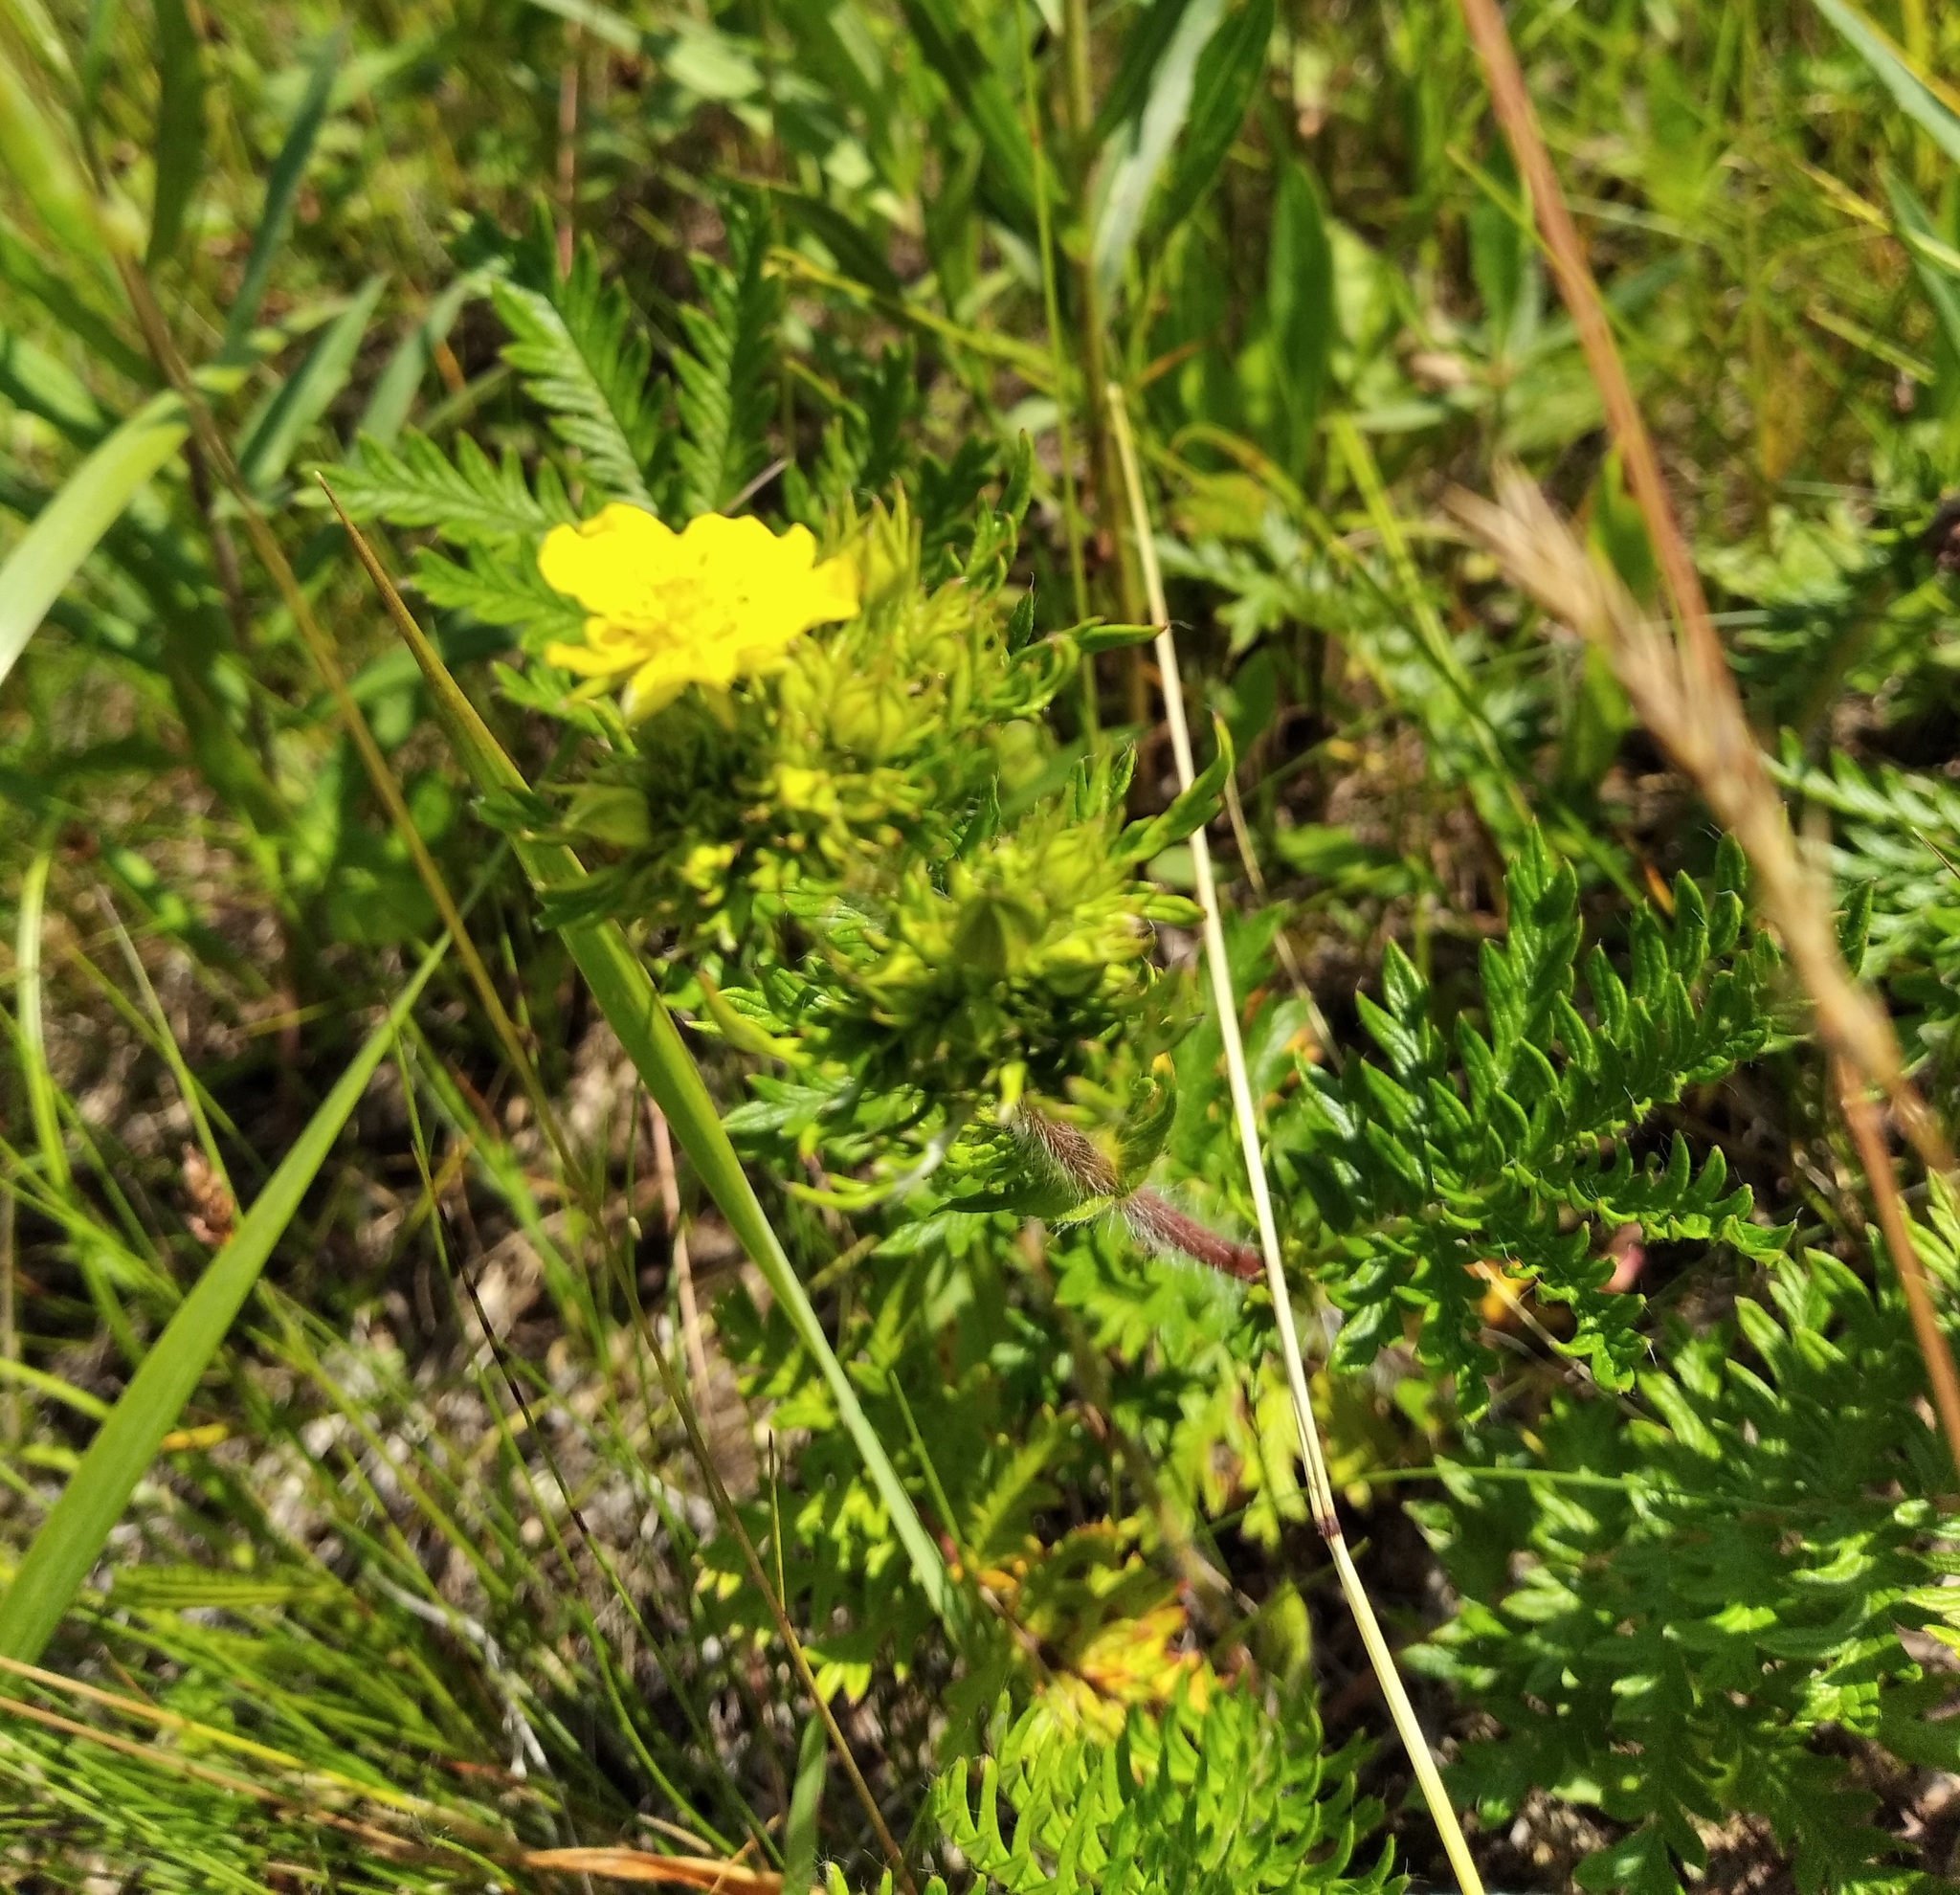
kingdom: Plantae
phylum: Tracheophyta
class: Magnoliopsida
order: Rosales
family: Rosaceae
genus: Potentilla
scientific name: Potentilla chinensis
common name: Chinese cinquefoil
